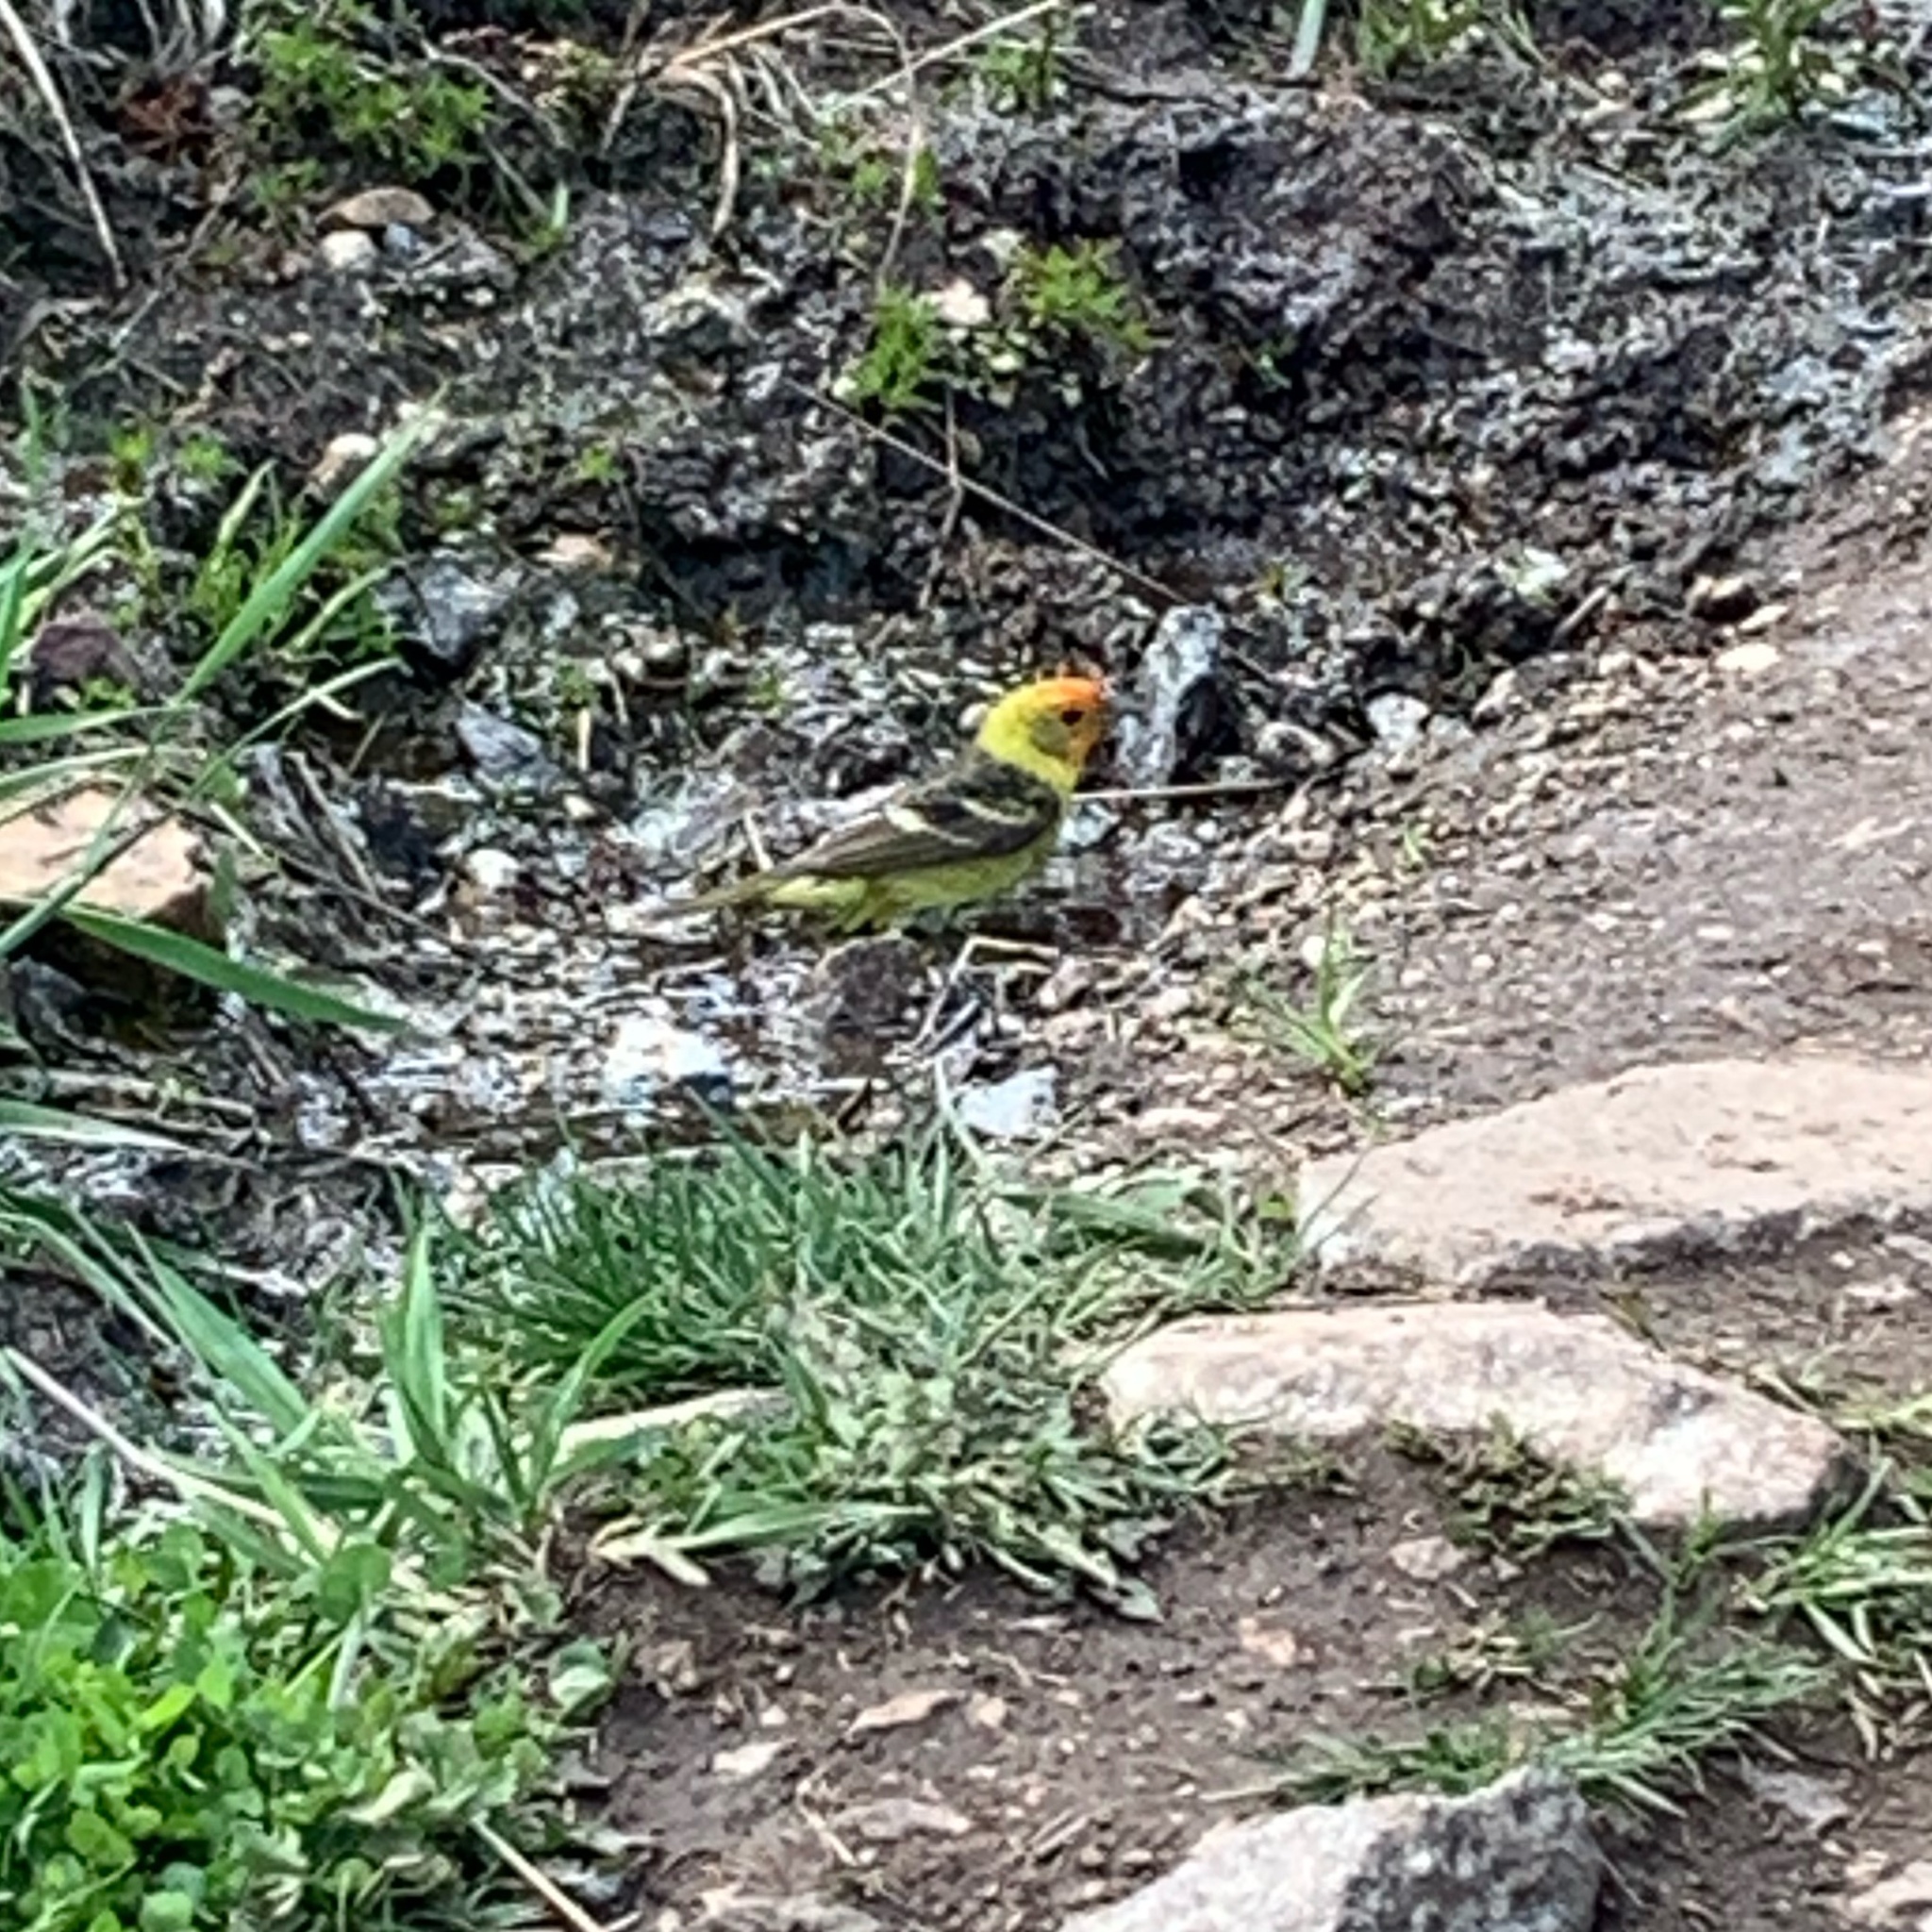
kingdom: Animalia
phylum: Chordata
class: Aves
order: Passeriformes
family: Cardinalidae
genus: Piranga
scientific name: Piranga ludoviciana
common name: Western tanager
